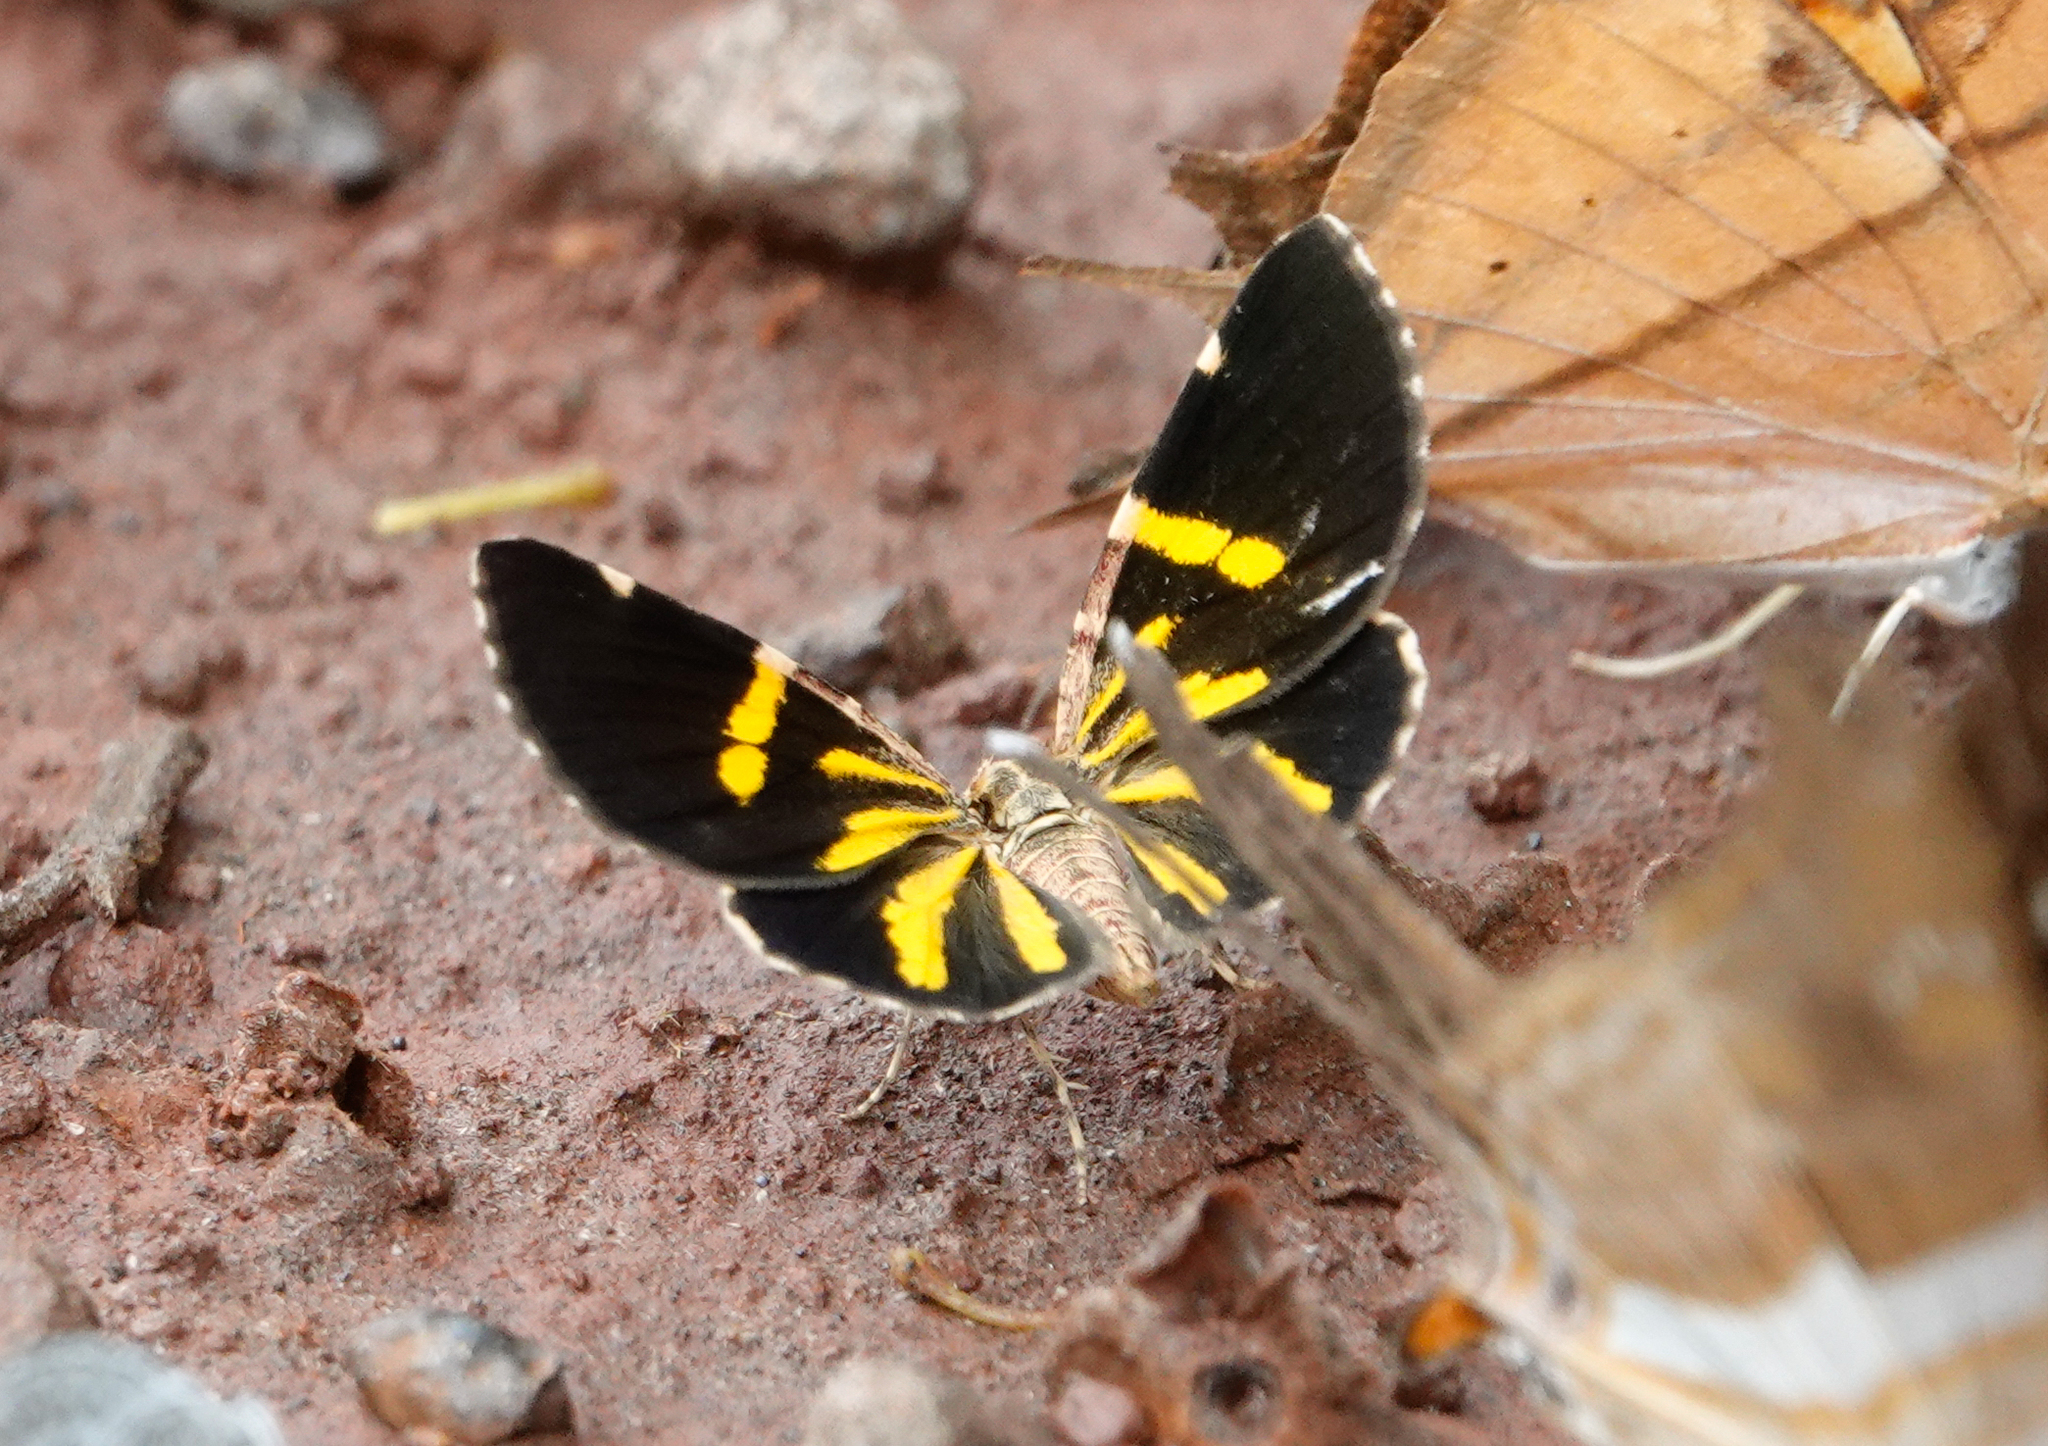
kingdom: Animalia
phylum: Arthropoda
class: Insecta
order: Lepidoptera
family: Geometridae
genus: Heterusia
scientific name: Heterusia quadruplicaria
